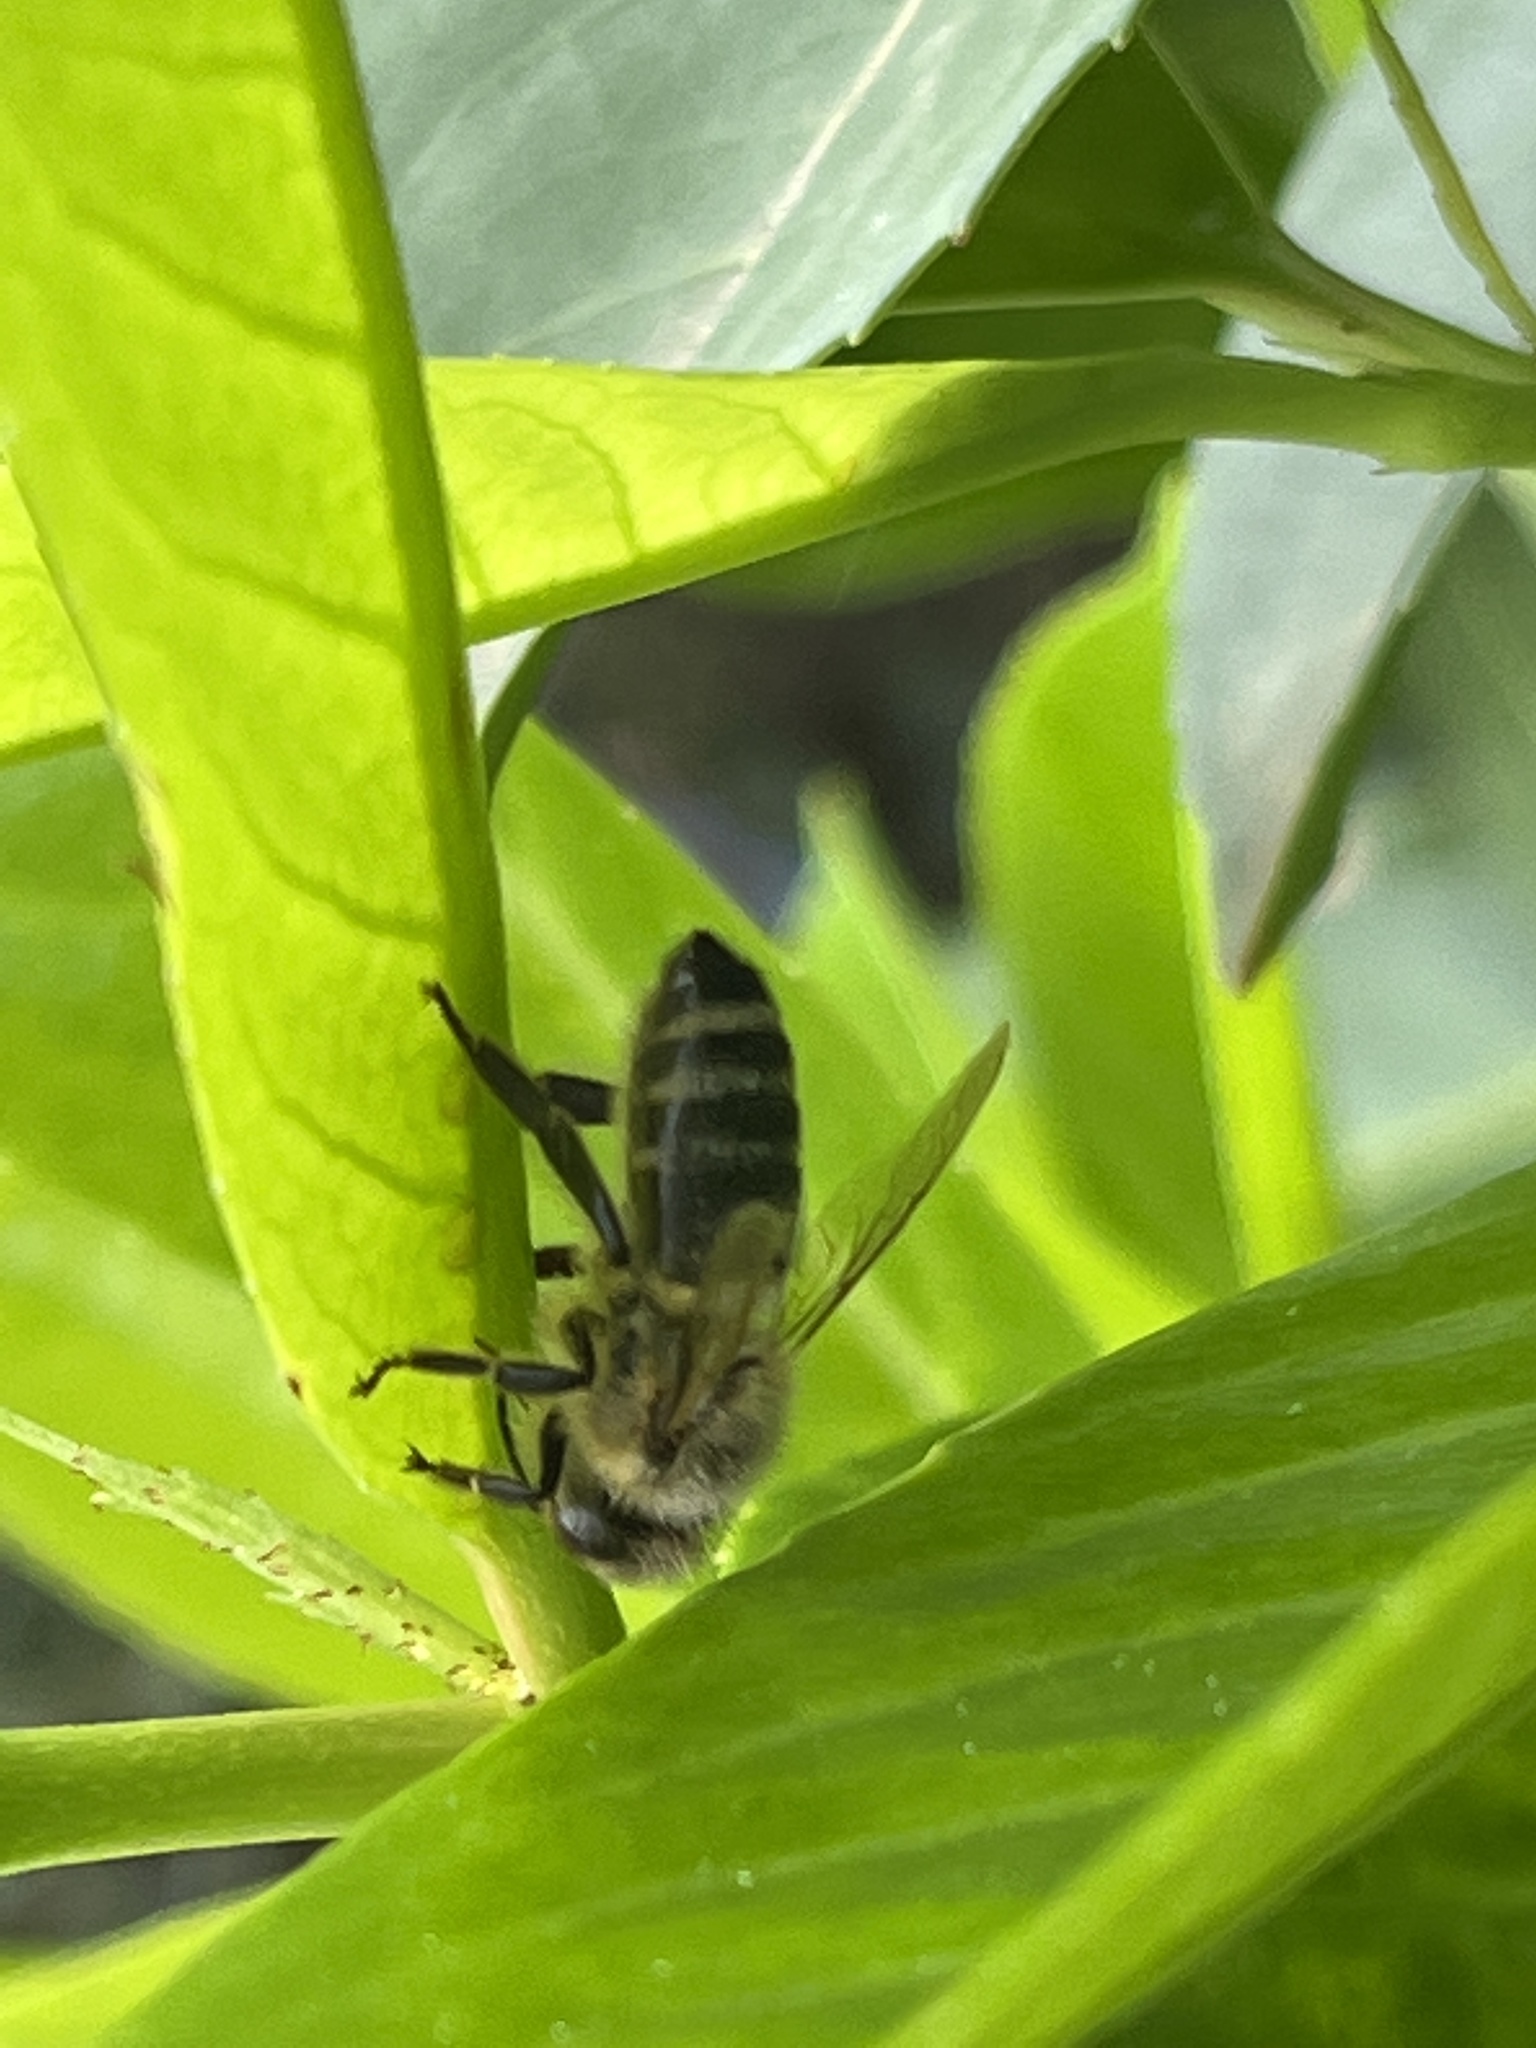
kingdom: Animalia
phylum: Arthropoda
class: Insecta
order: Hymenoptera
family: Apidae
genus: Apis
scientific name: Apis mellifera
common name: Honey bee
